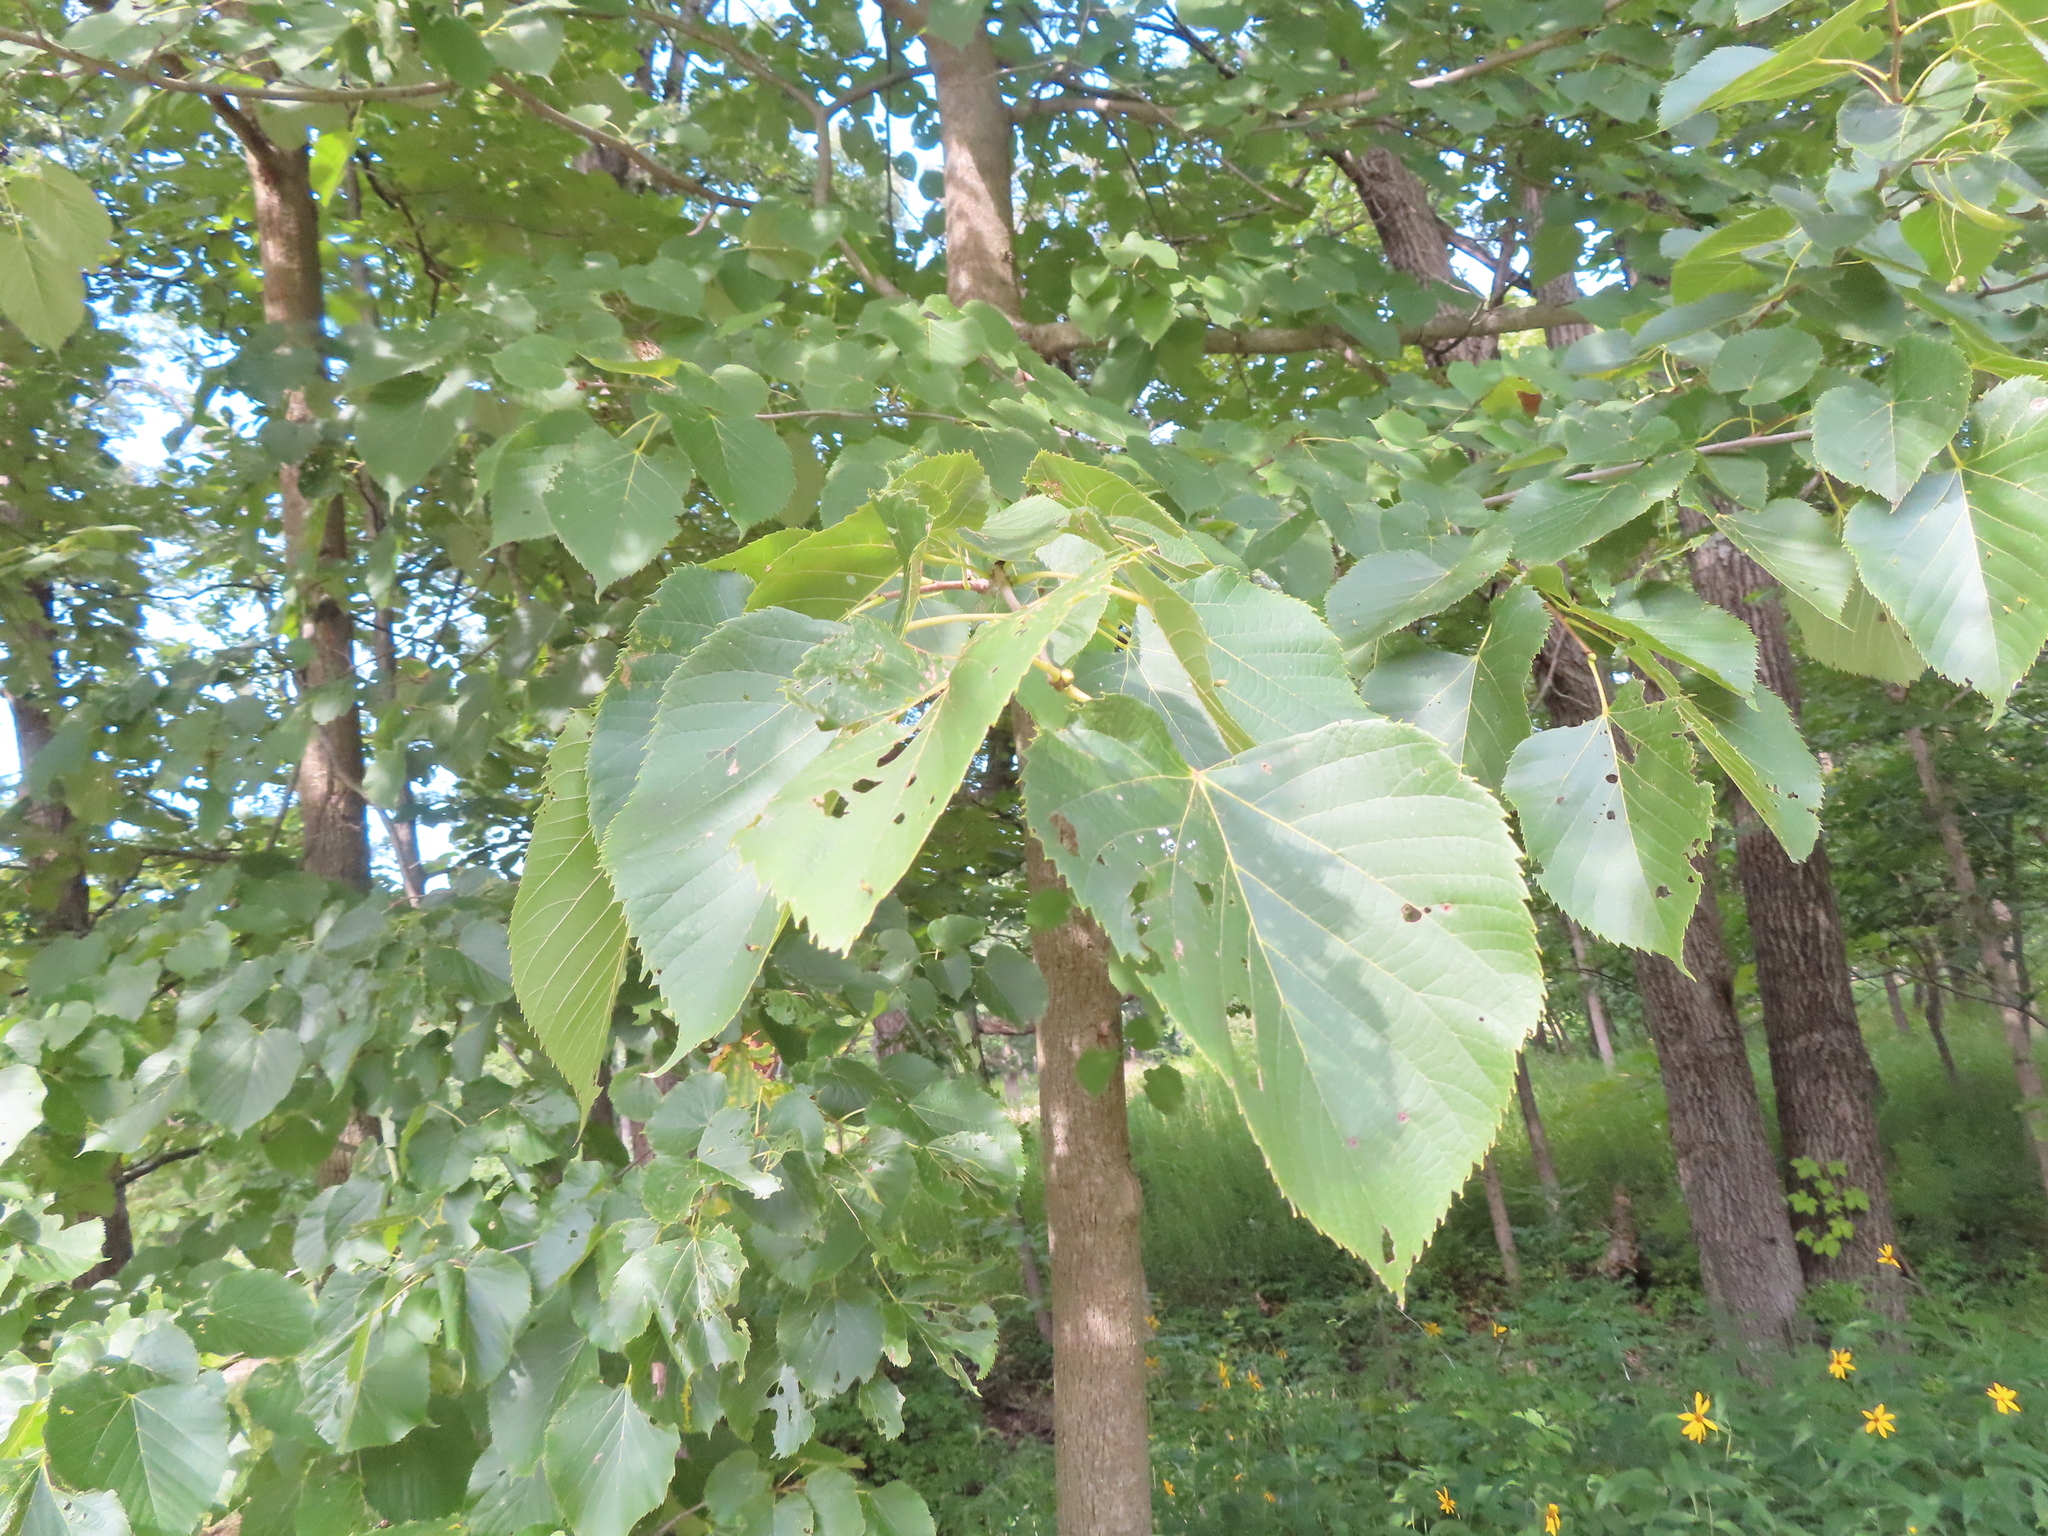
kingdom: Plantae
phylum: Tracheophyta
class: Magnoliopsida
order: Malvales
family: Malvaceae
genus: Tilia
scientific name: Tilia americana
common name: Basswood
